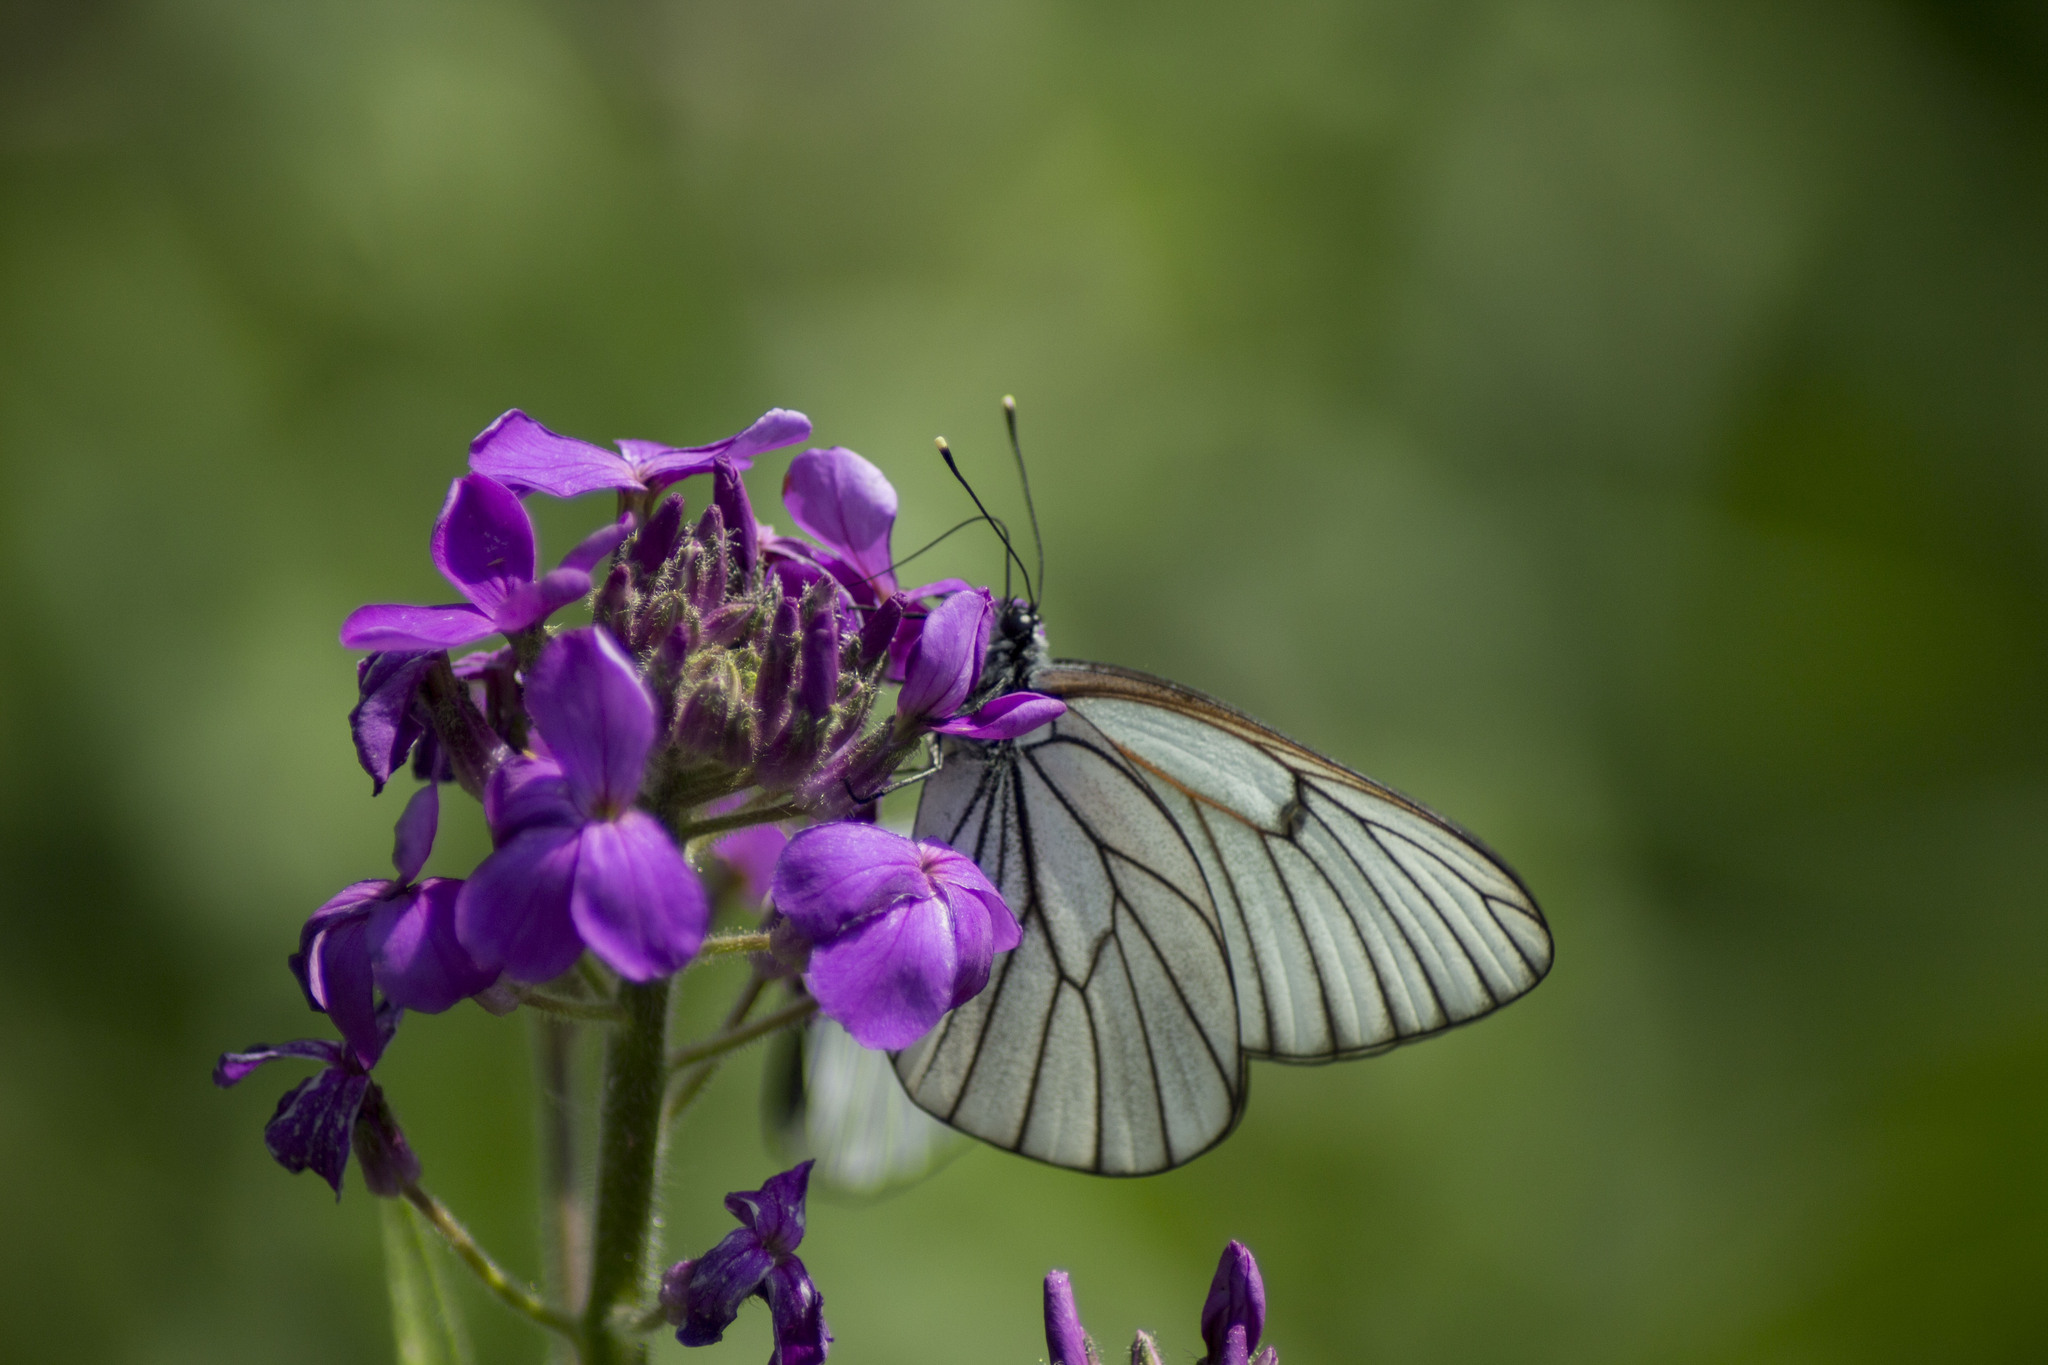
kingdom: Animalia
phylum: Arthropoda
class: Insecta
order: Lepidoptera
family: Pieridae
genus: Aporia
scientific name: Aporia crataegi
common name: Black-veined white
